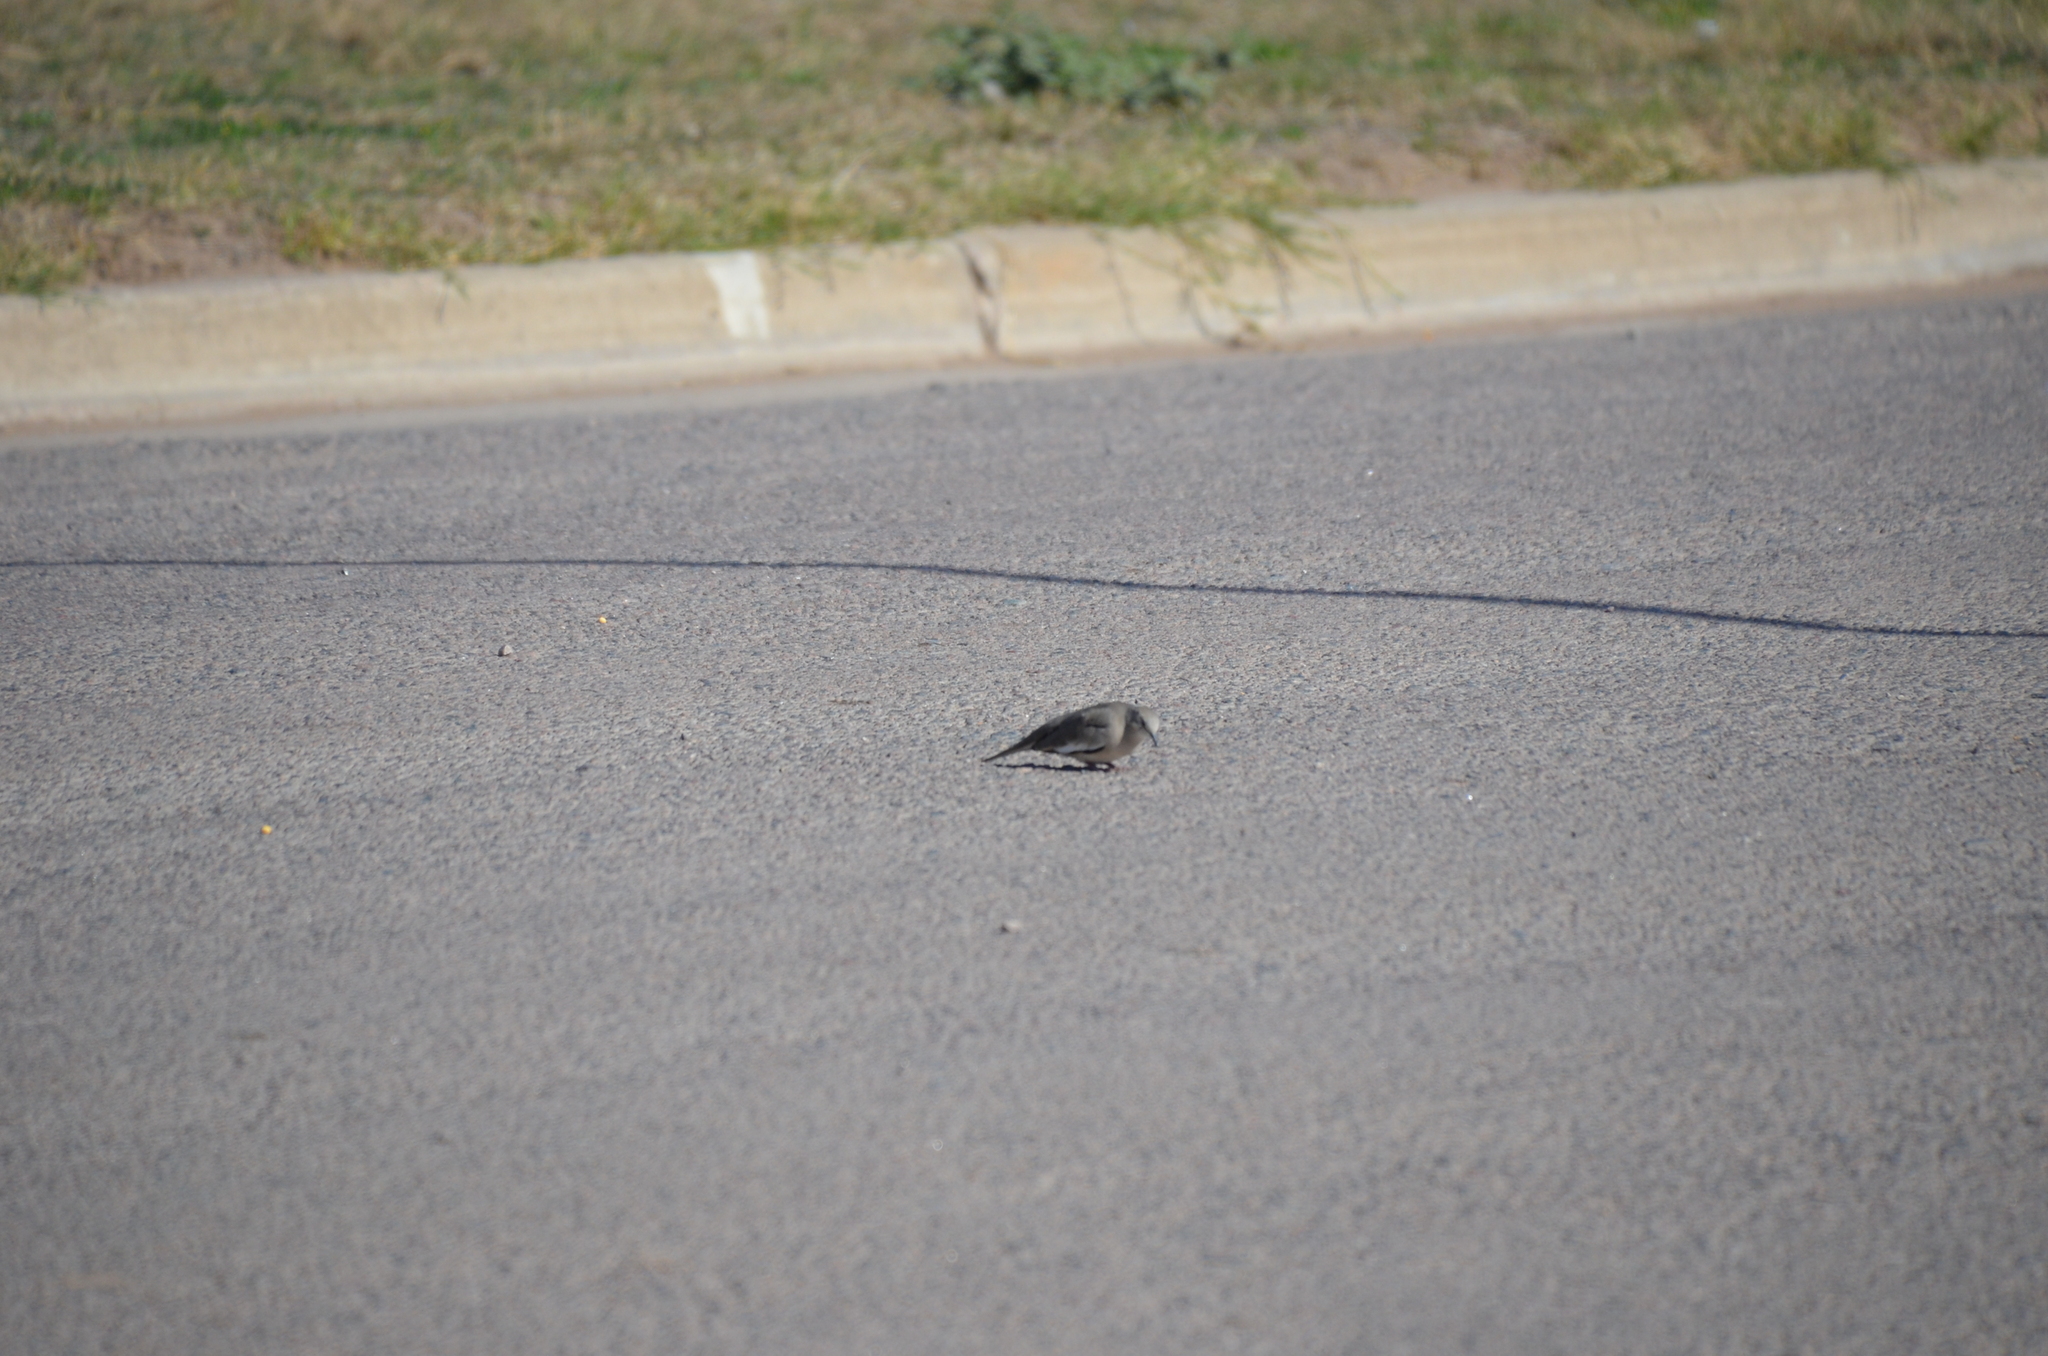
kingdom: Animalia
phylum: Chordata
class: Aves
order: Columbiformes
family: Columbidae
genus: Columbina
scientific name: Columbina picui
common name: Picui ground dove
